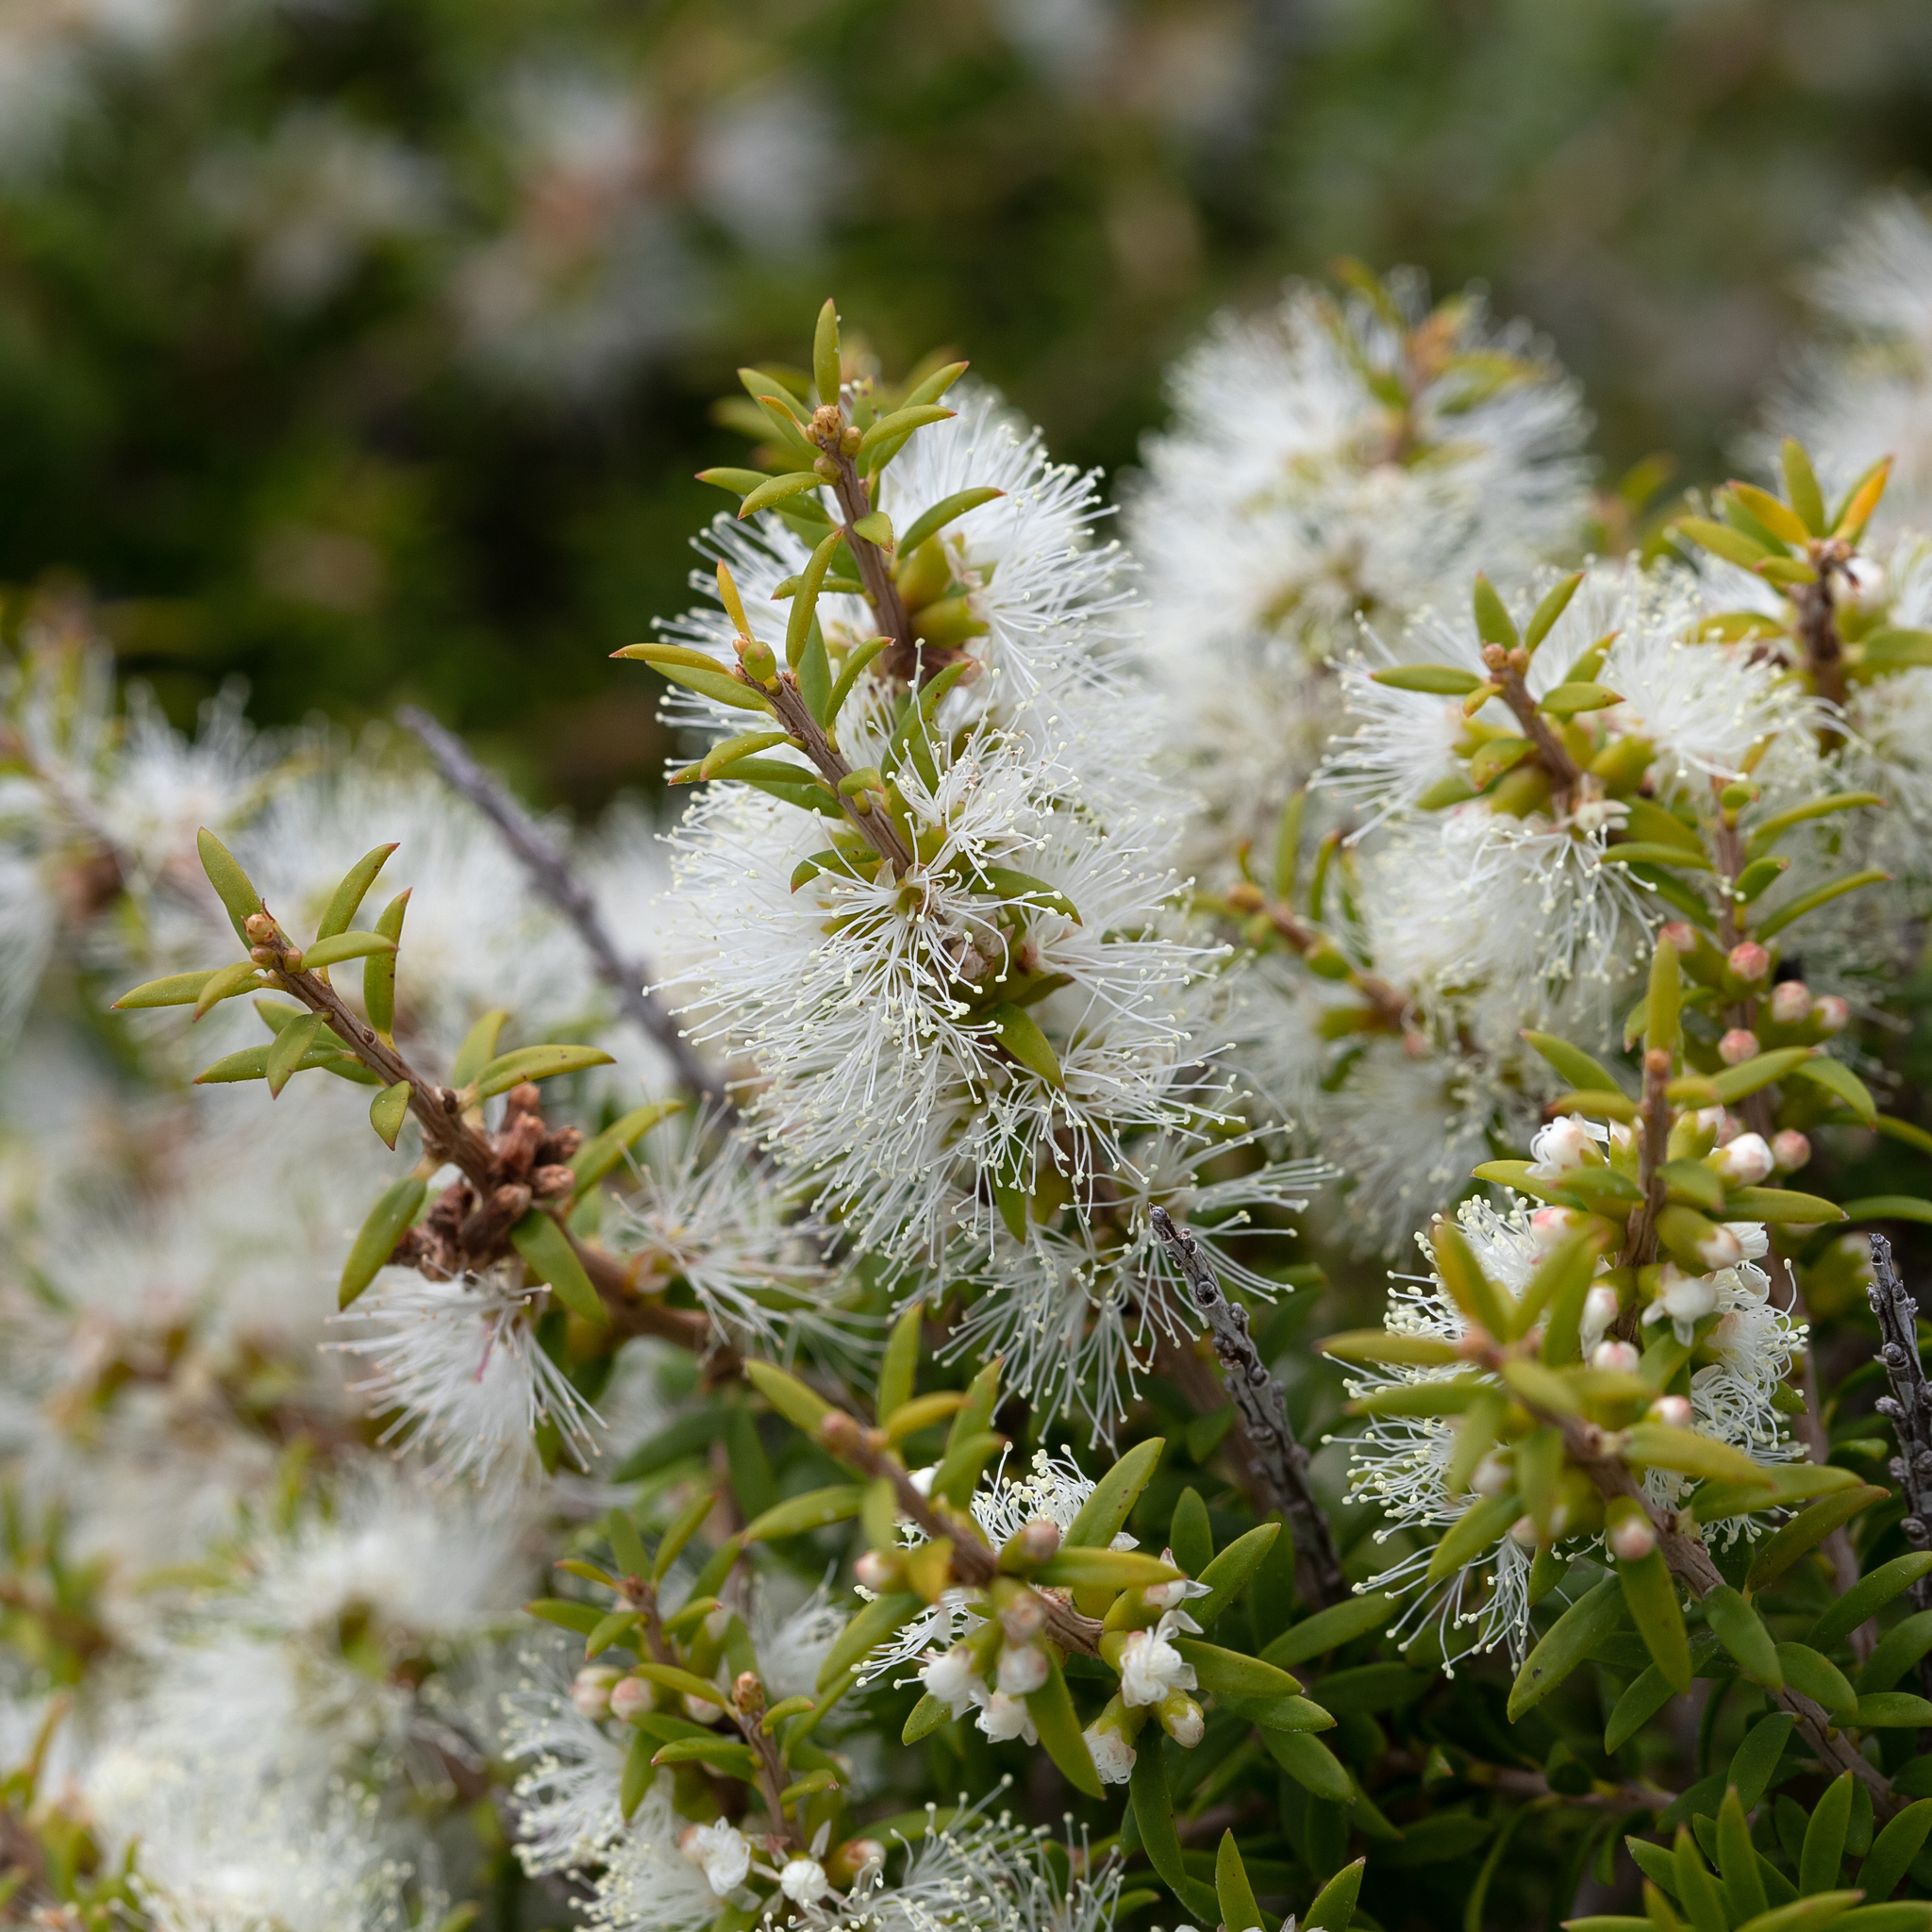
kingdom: Plantae
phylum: Tracheophyta
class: Magnoliopsida
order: Myrtales
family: Myrtaceae
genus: Melaleuca
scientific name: Melaleuca lanceolata
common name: Rottnest island teatree
